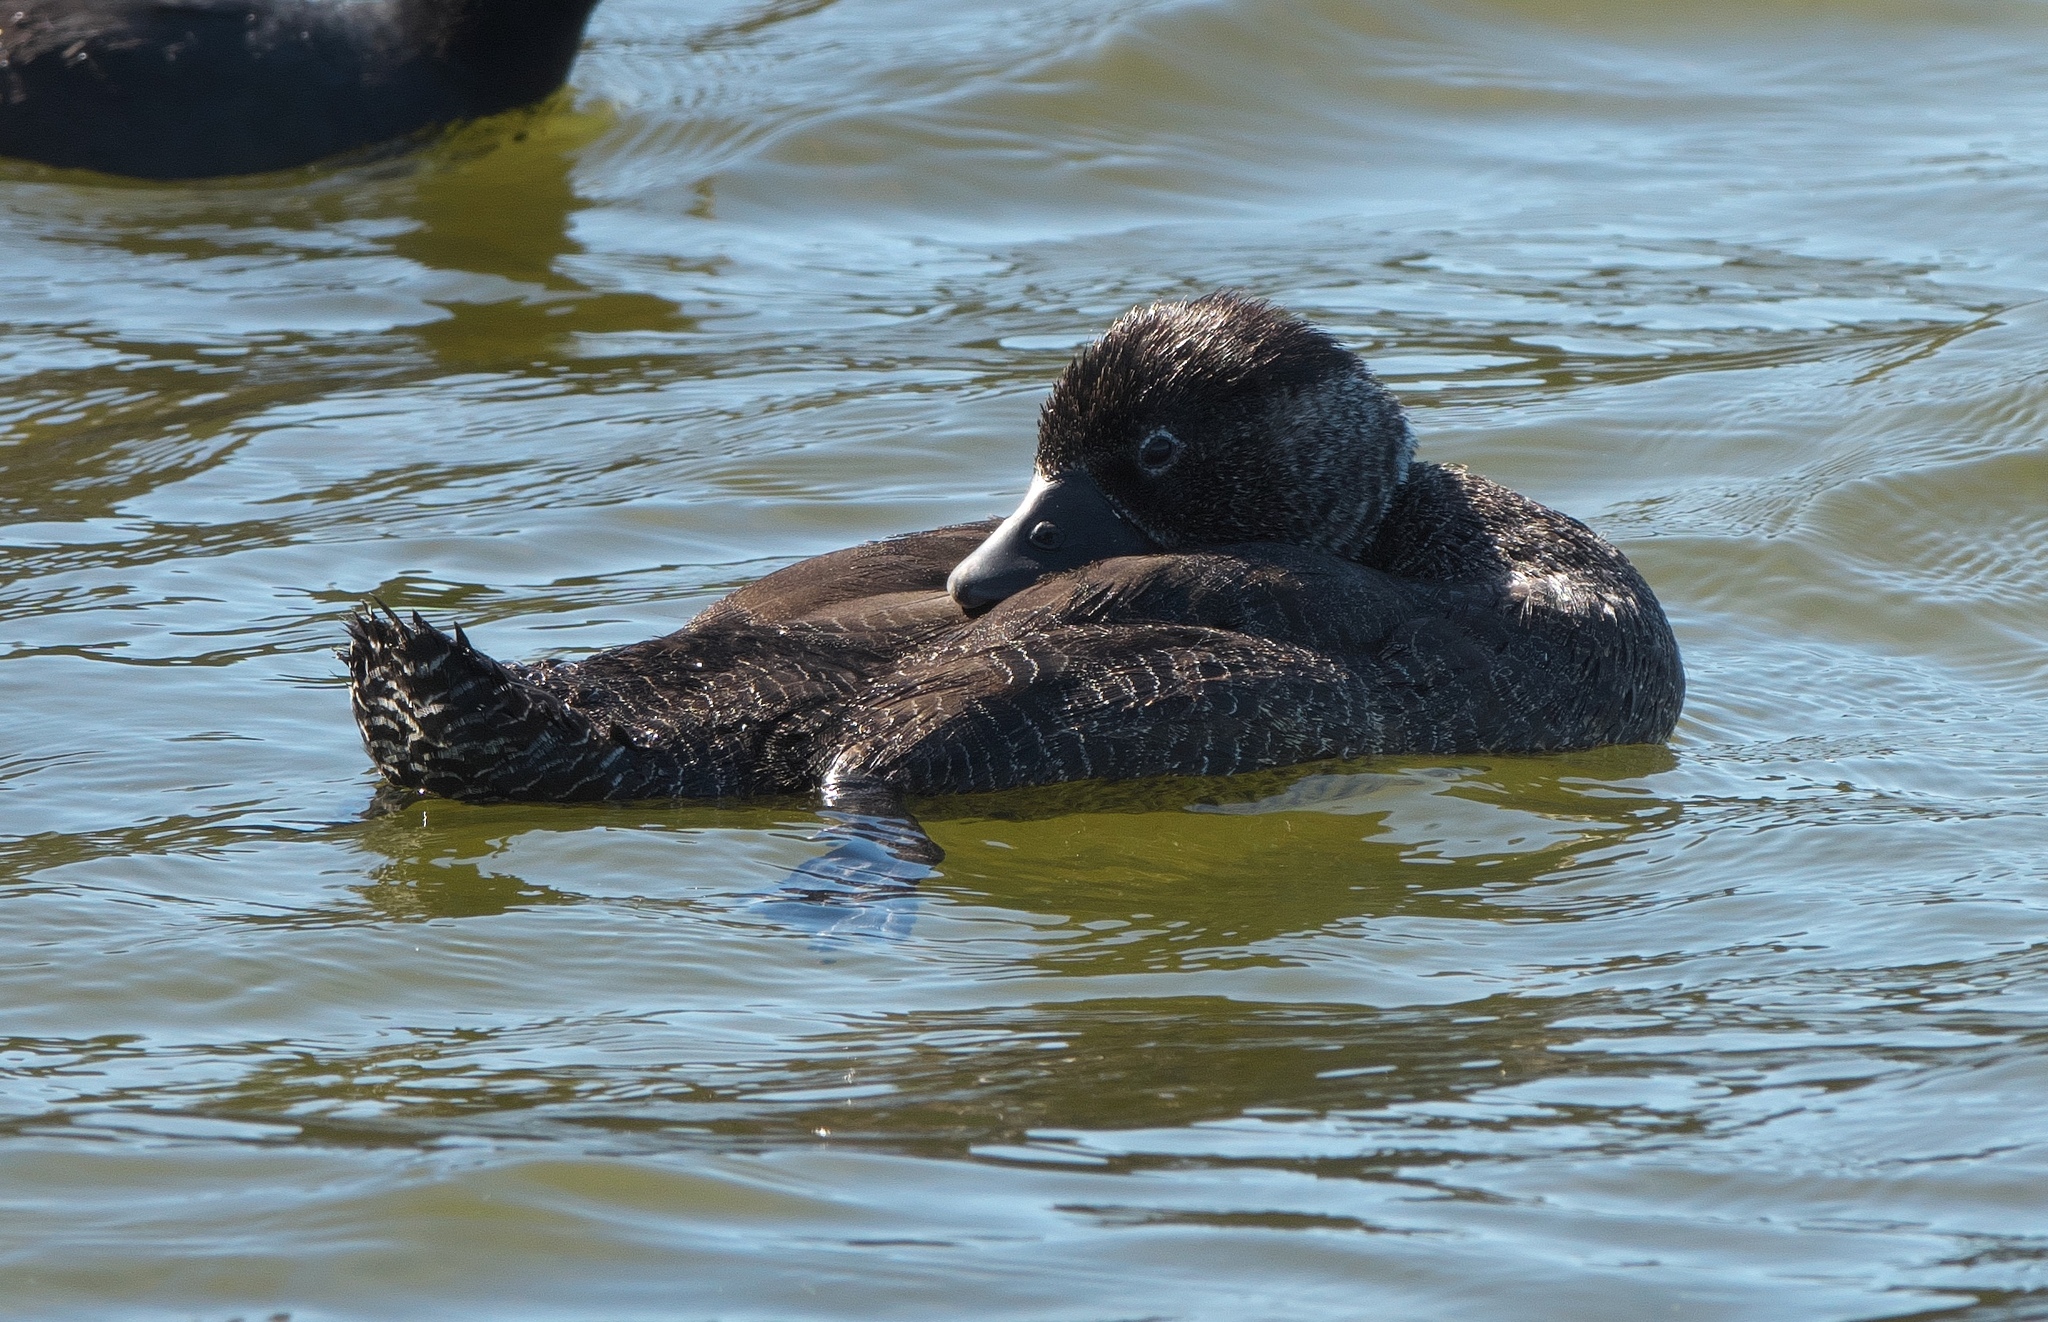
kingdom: Animalia
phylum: Chordata
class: Aves
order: Anseriformes
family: Anatidae
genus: Biziura
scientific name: Biziura lobata
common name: Musk duck
